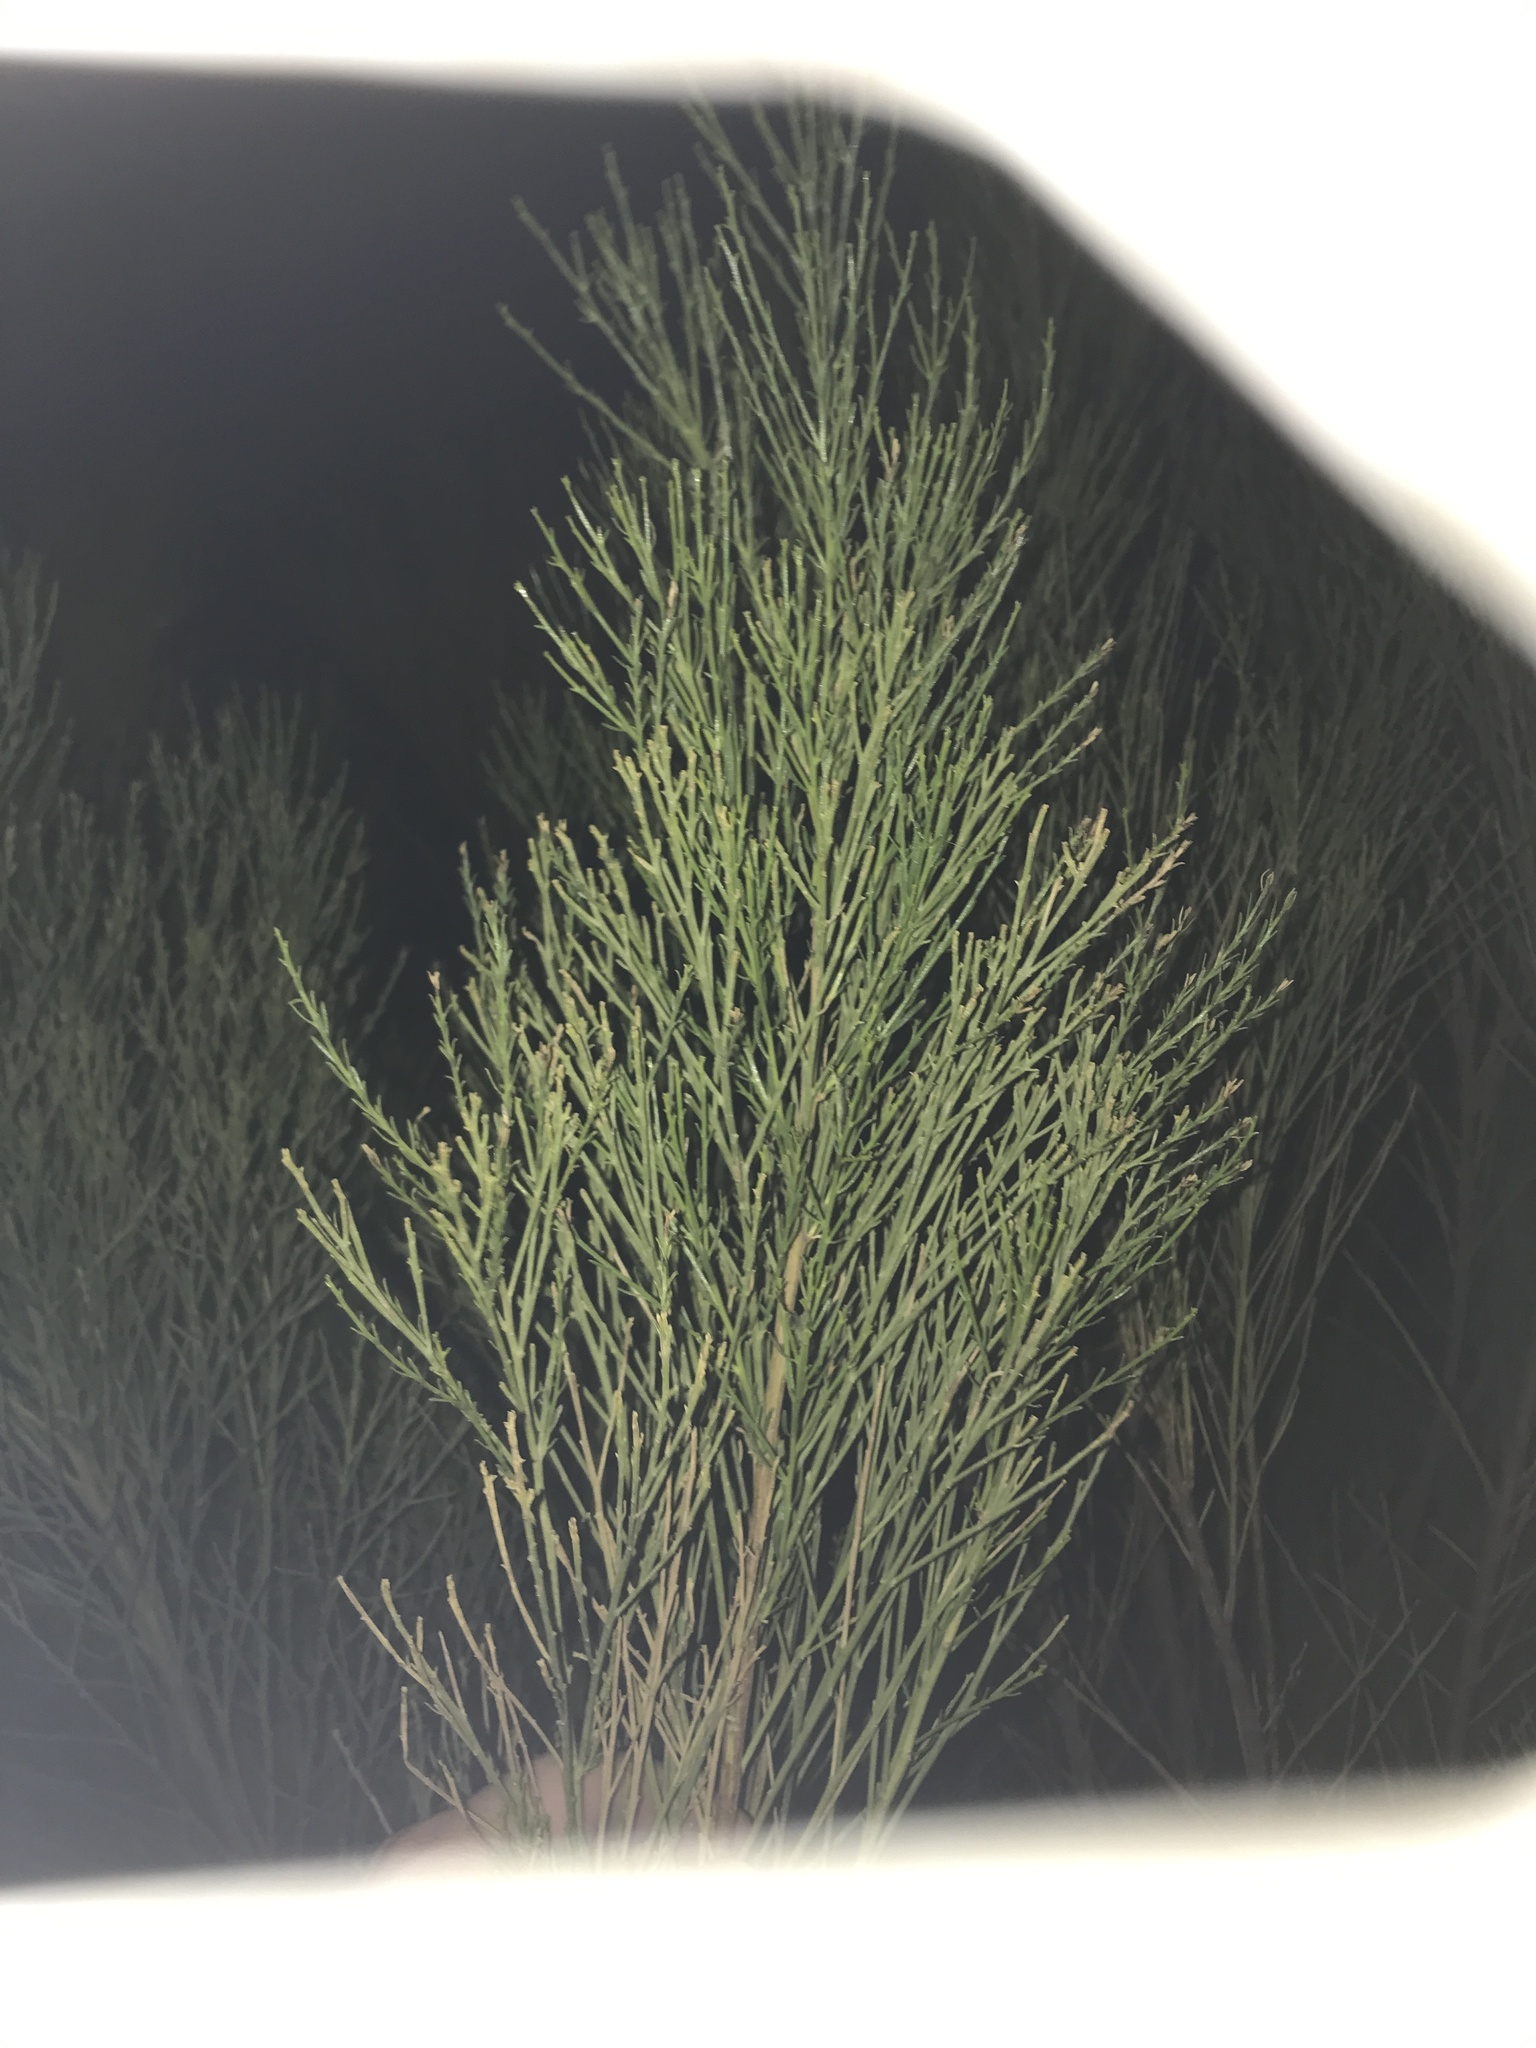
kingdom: Plantae
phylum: Tracheophyta
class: Magnoliopsida
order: Asterales
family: Asteraceae
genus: Baccharis
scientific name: Baccharis sarothroides
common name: Desert-broom
